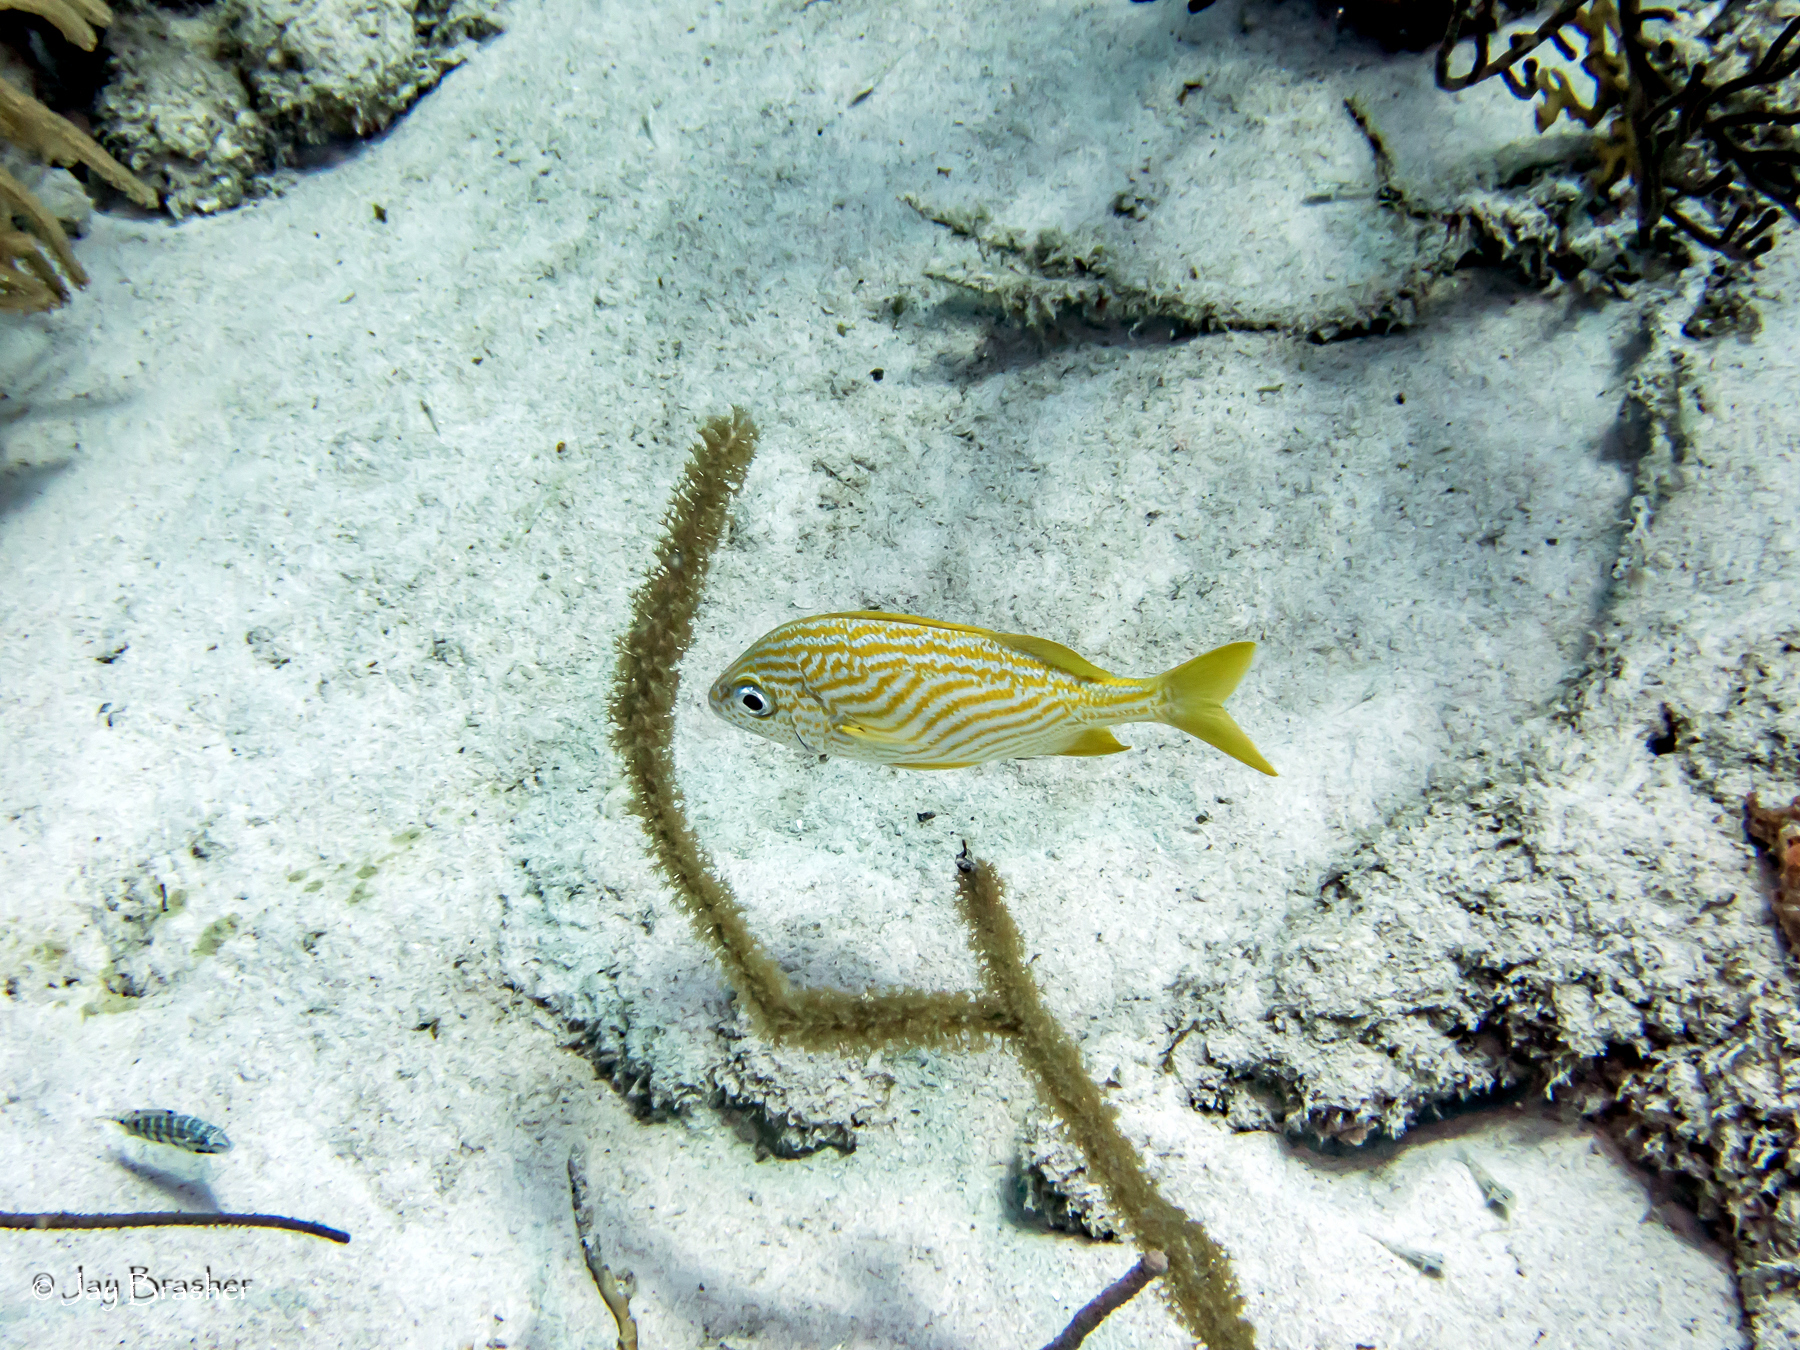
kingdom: Animalia
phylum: Chordata
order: Perciformes
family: Haemulidae
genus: Haemulon
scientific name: Haemulon flavolineatum
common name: French grunt
